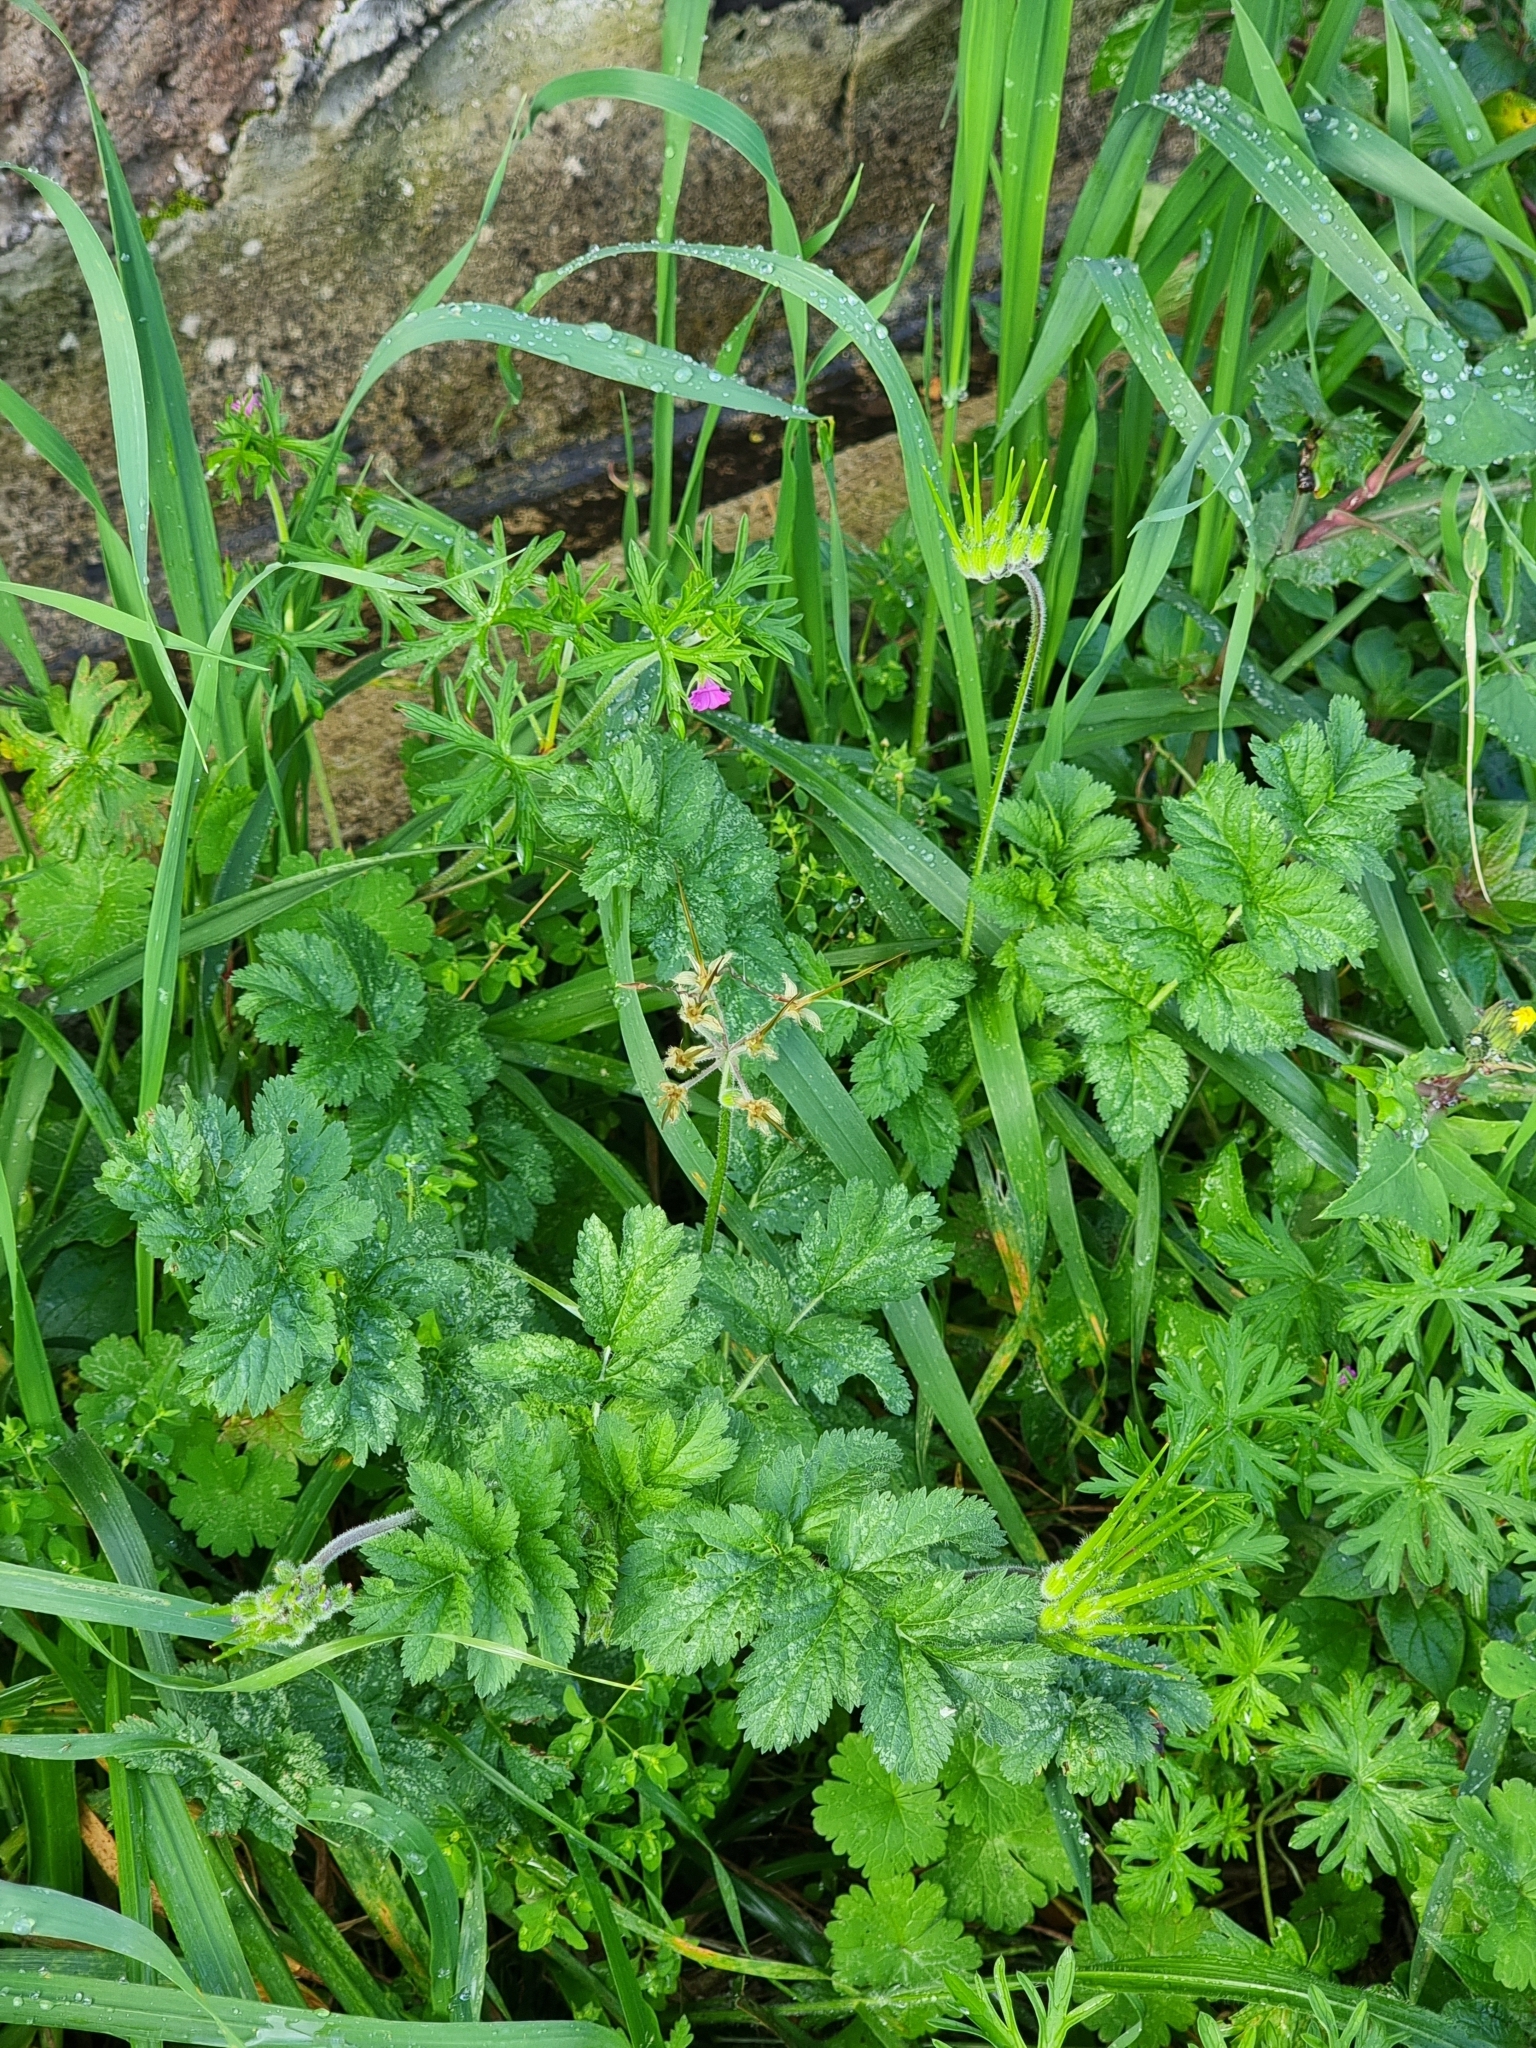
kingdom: Plantae
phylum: Tracheophyta
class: Magnoliopsida
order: Geraniales
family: Geraniaceae
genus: Erodium
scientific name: Erodium moschatum
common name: Musk stork's-bill
